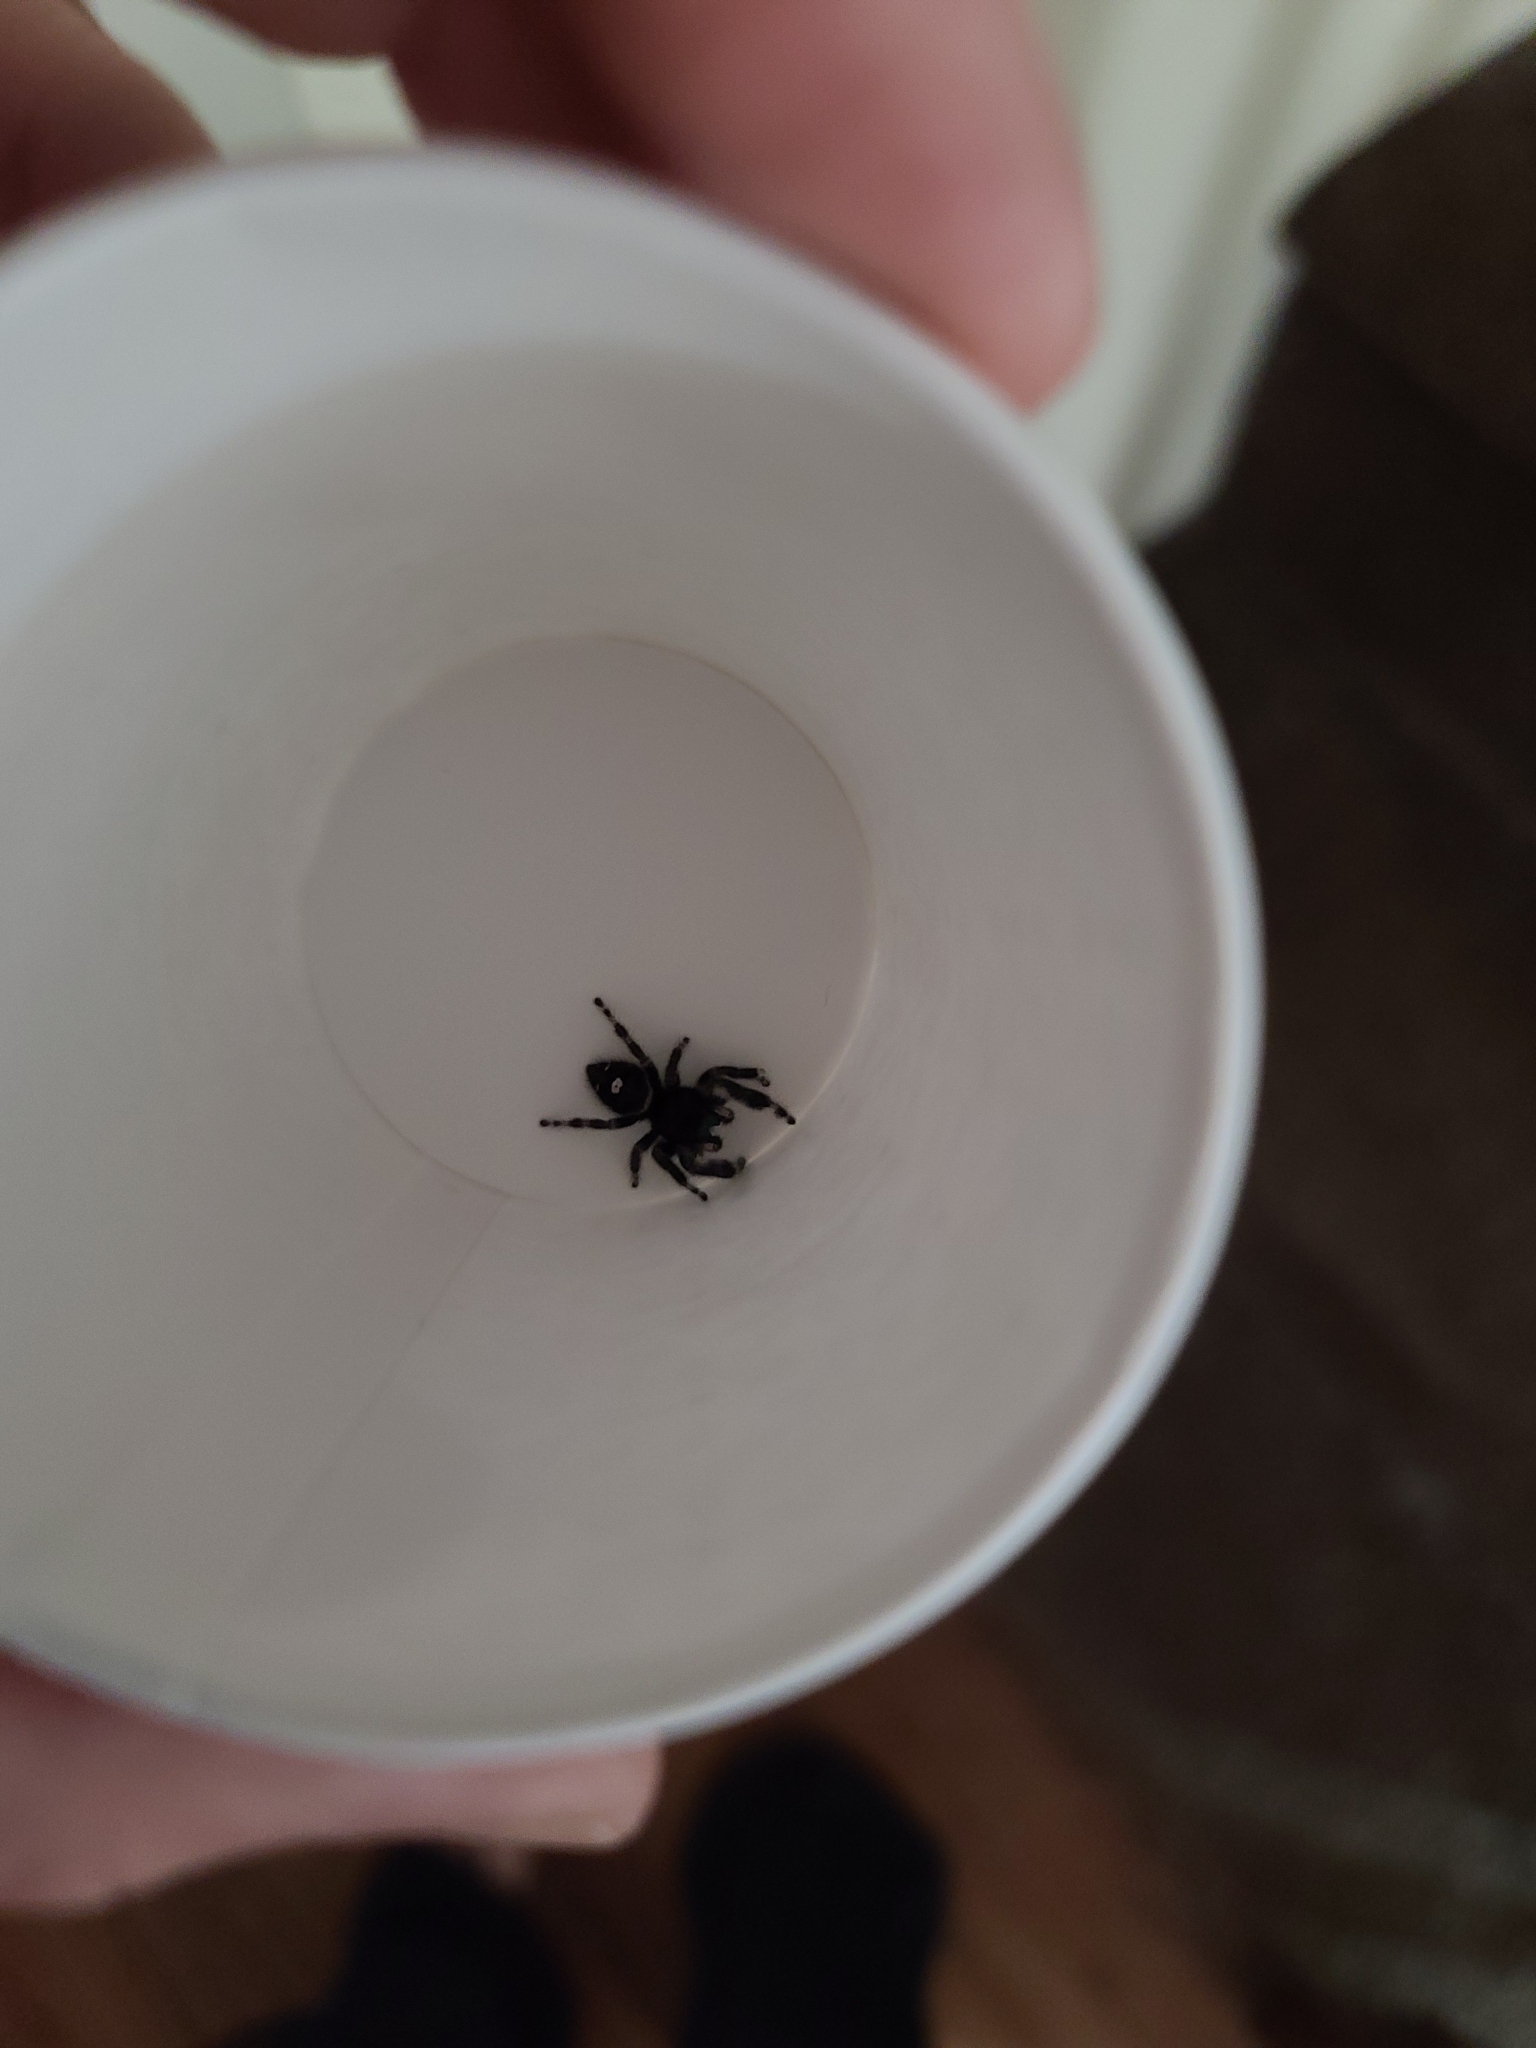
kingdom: Animalia
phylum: Arthropoda
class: Arachnida
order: Araneae
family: Salticidae
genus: Phidippus
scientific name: Phidippus audax
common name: Bold jumper
